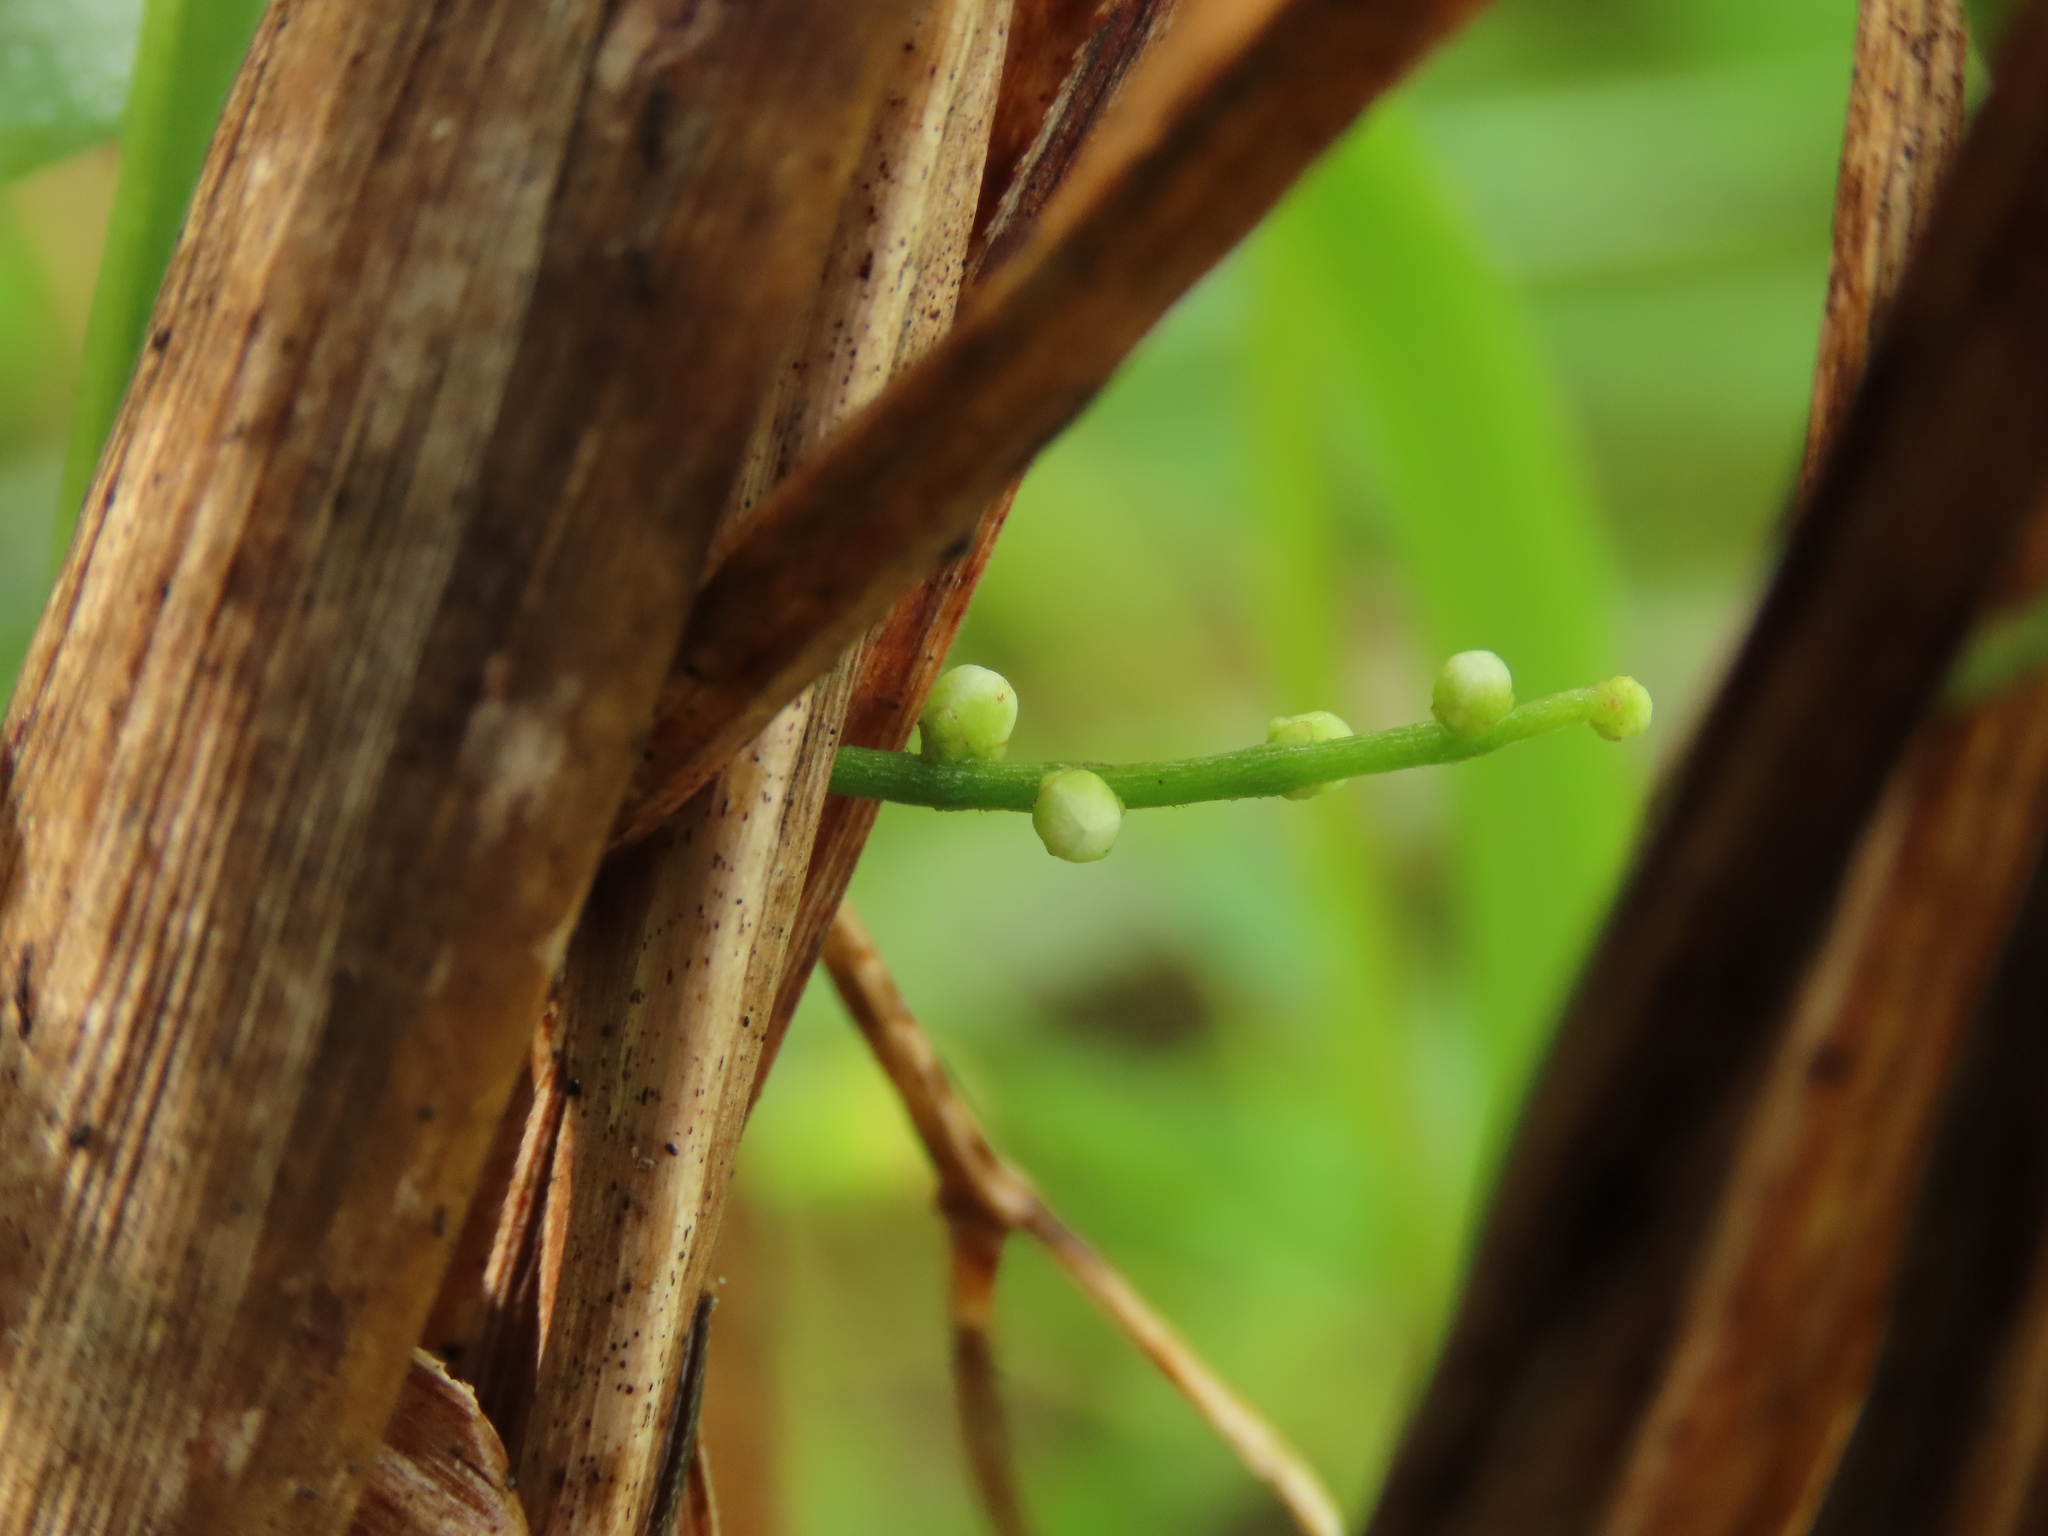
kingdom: Plantae
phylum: Tracheophyta
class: Magnoliopsida
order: Laurales
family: Lauraceae
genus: Cassytha
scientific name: Cassytha filiformis
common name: Dodder-laurel
